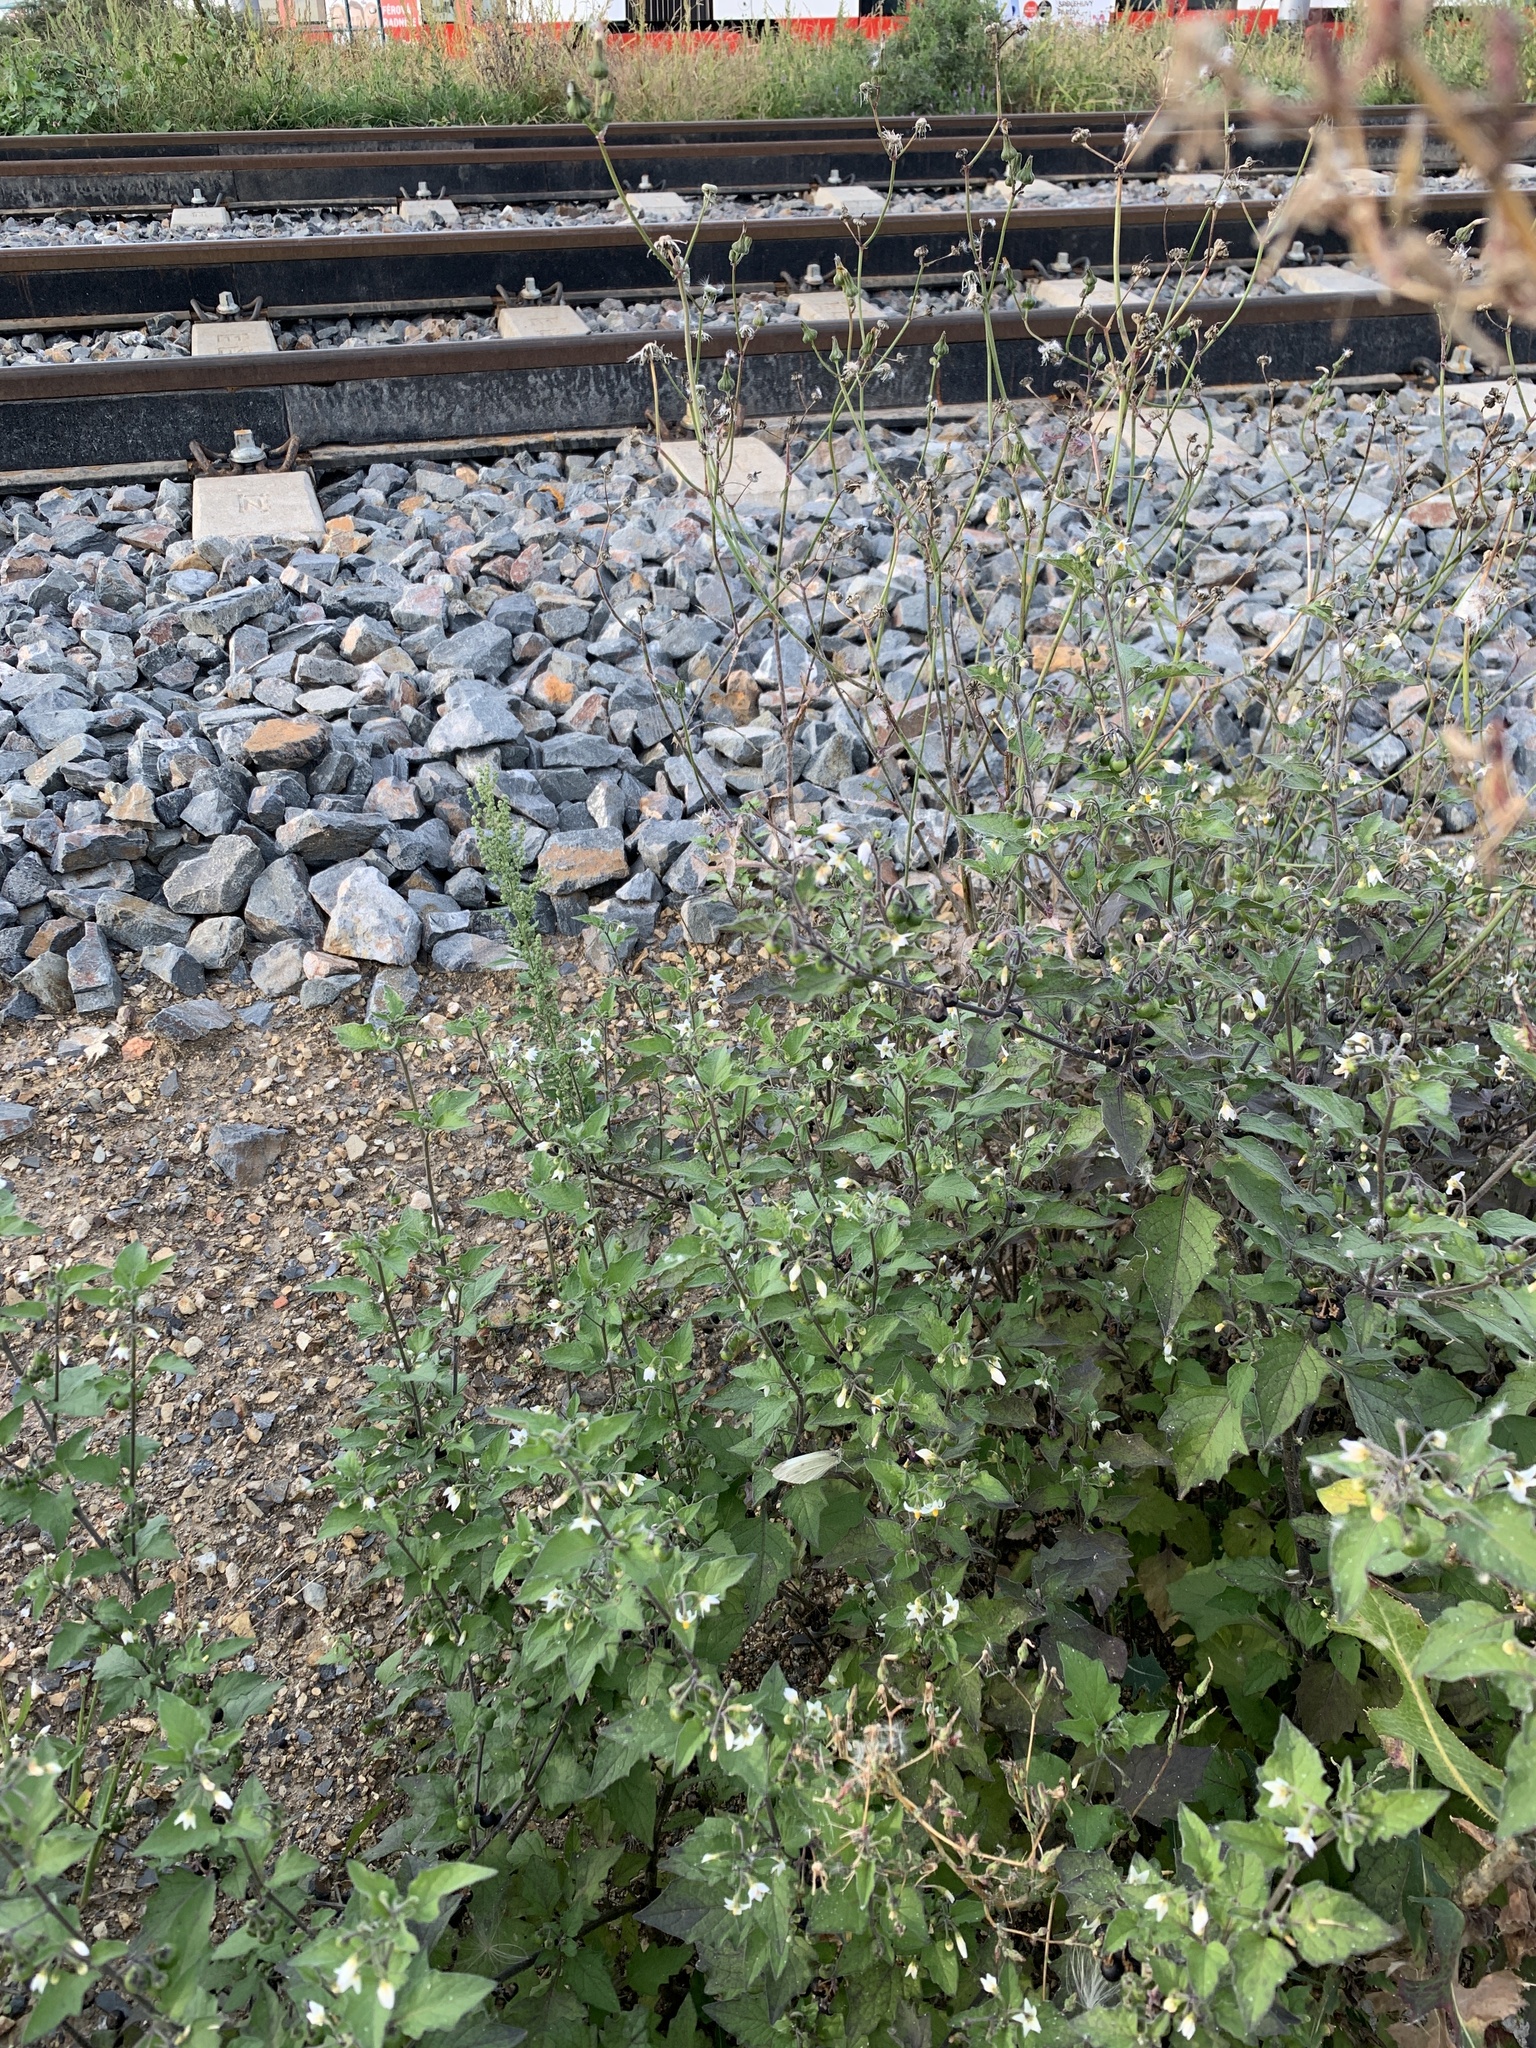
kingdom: Plantae
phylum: Tracheophyta
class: Magnoliopsida
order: Solanales
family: Solanaceae
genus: Solanum
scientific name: Solanum nigrum
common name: Black nightshade
